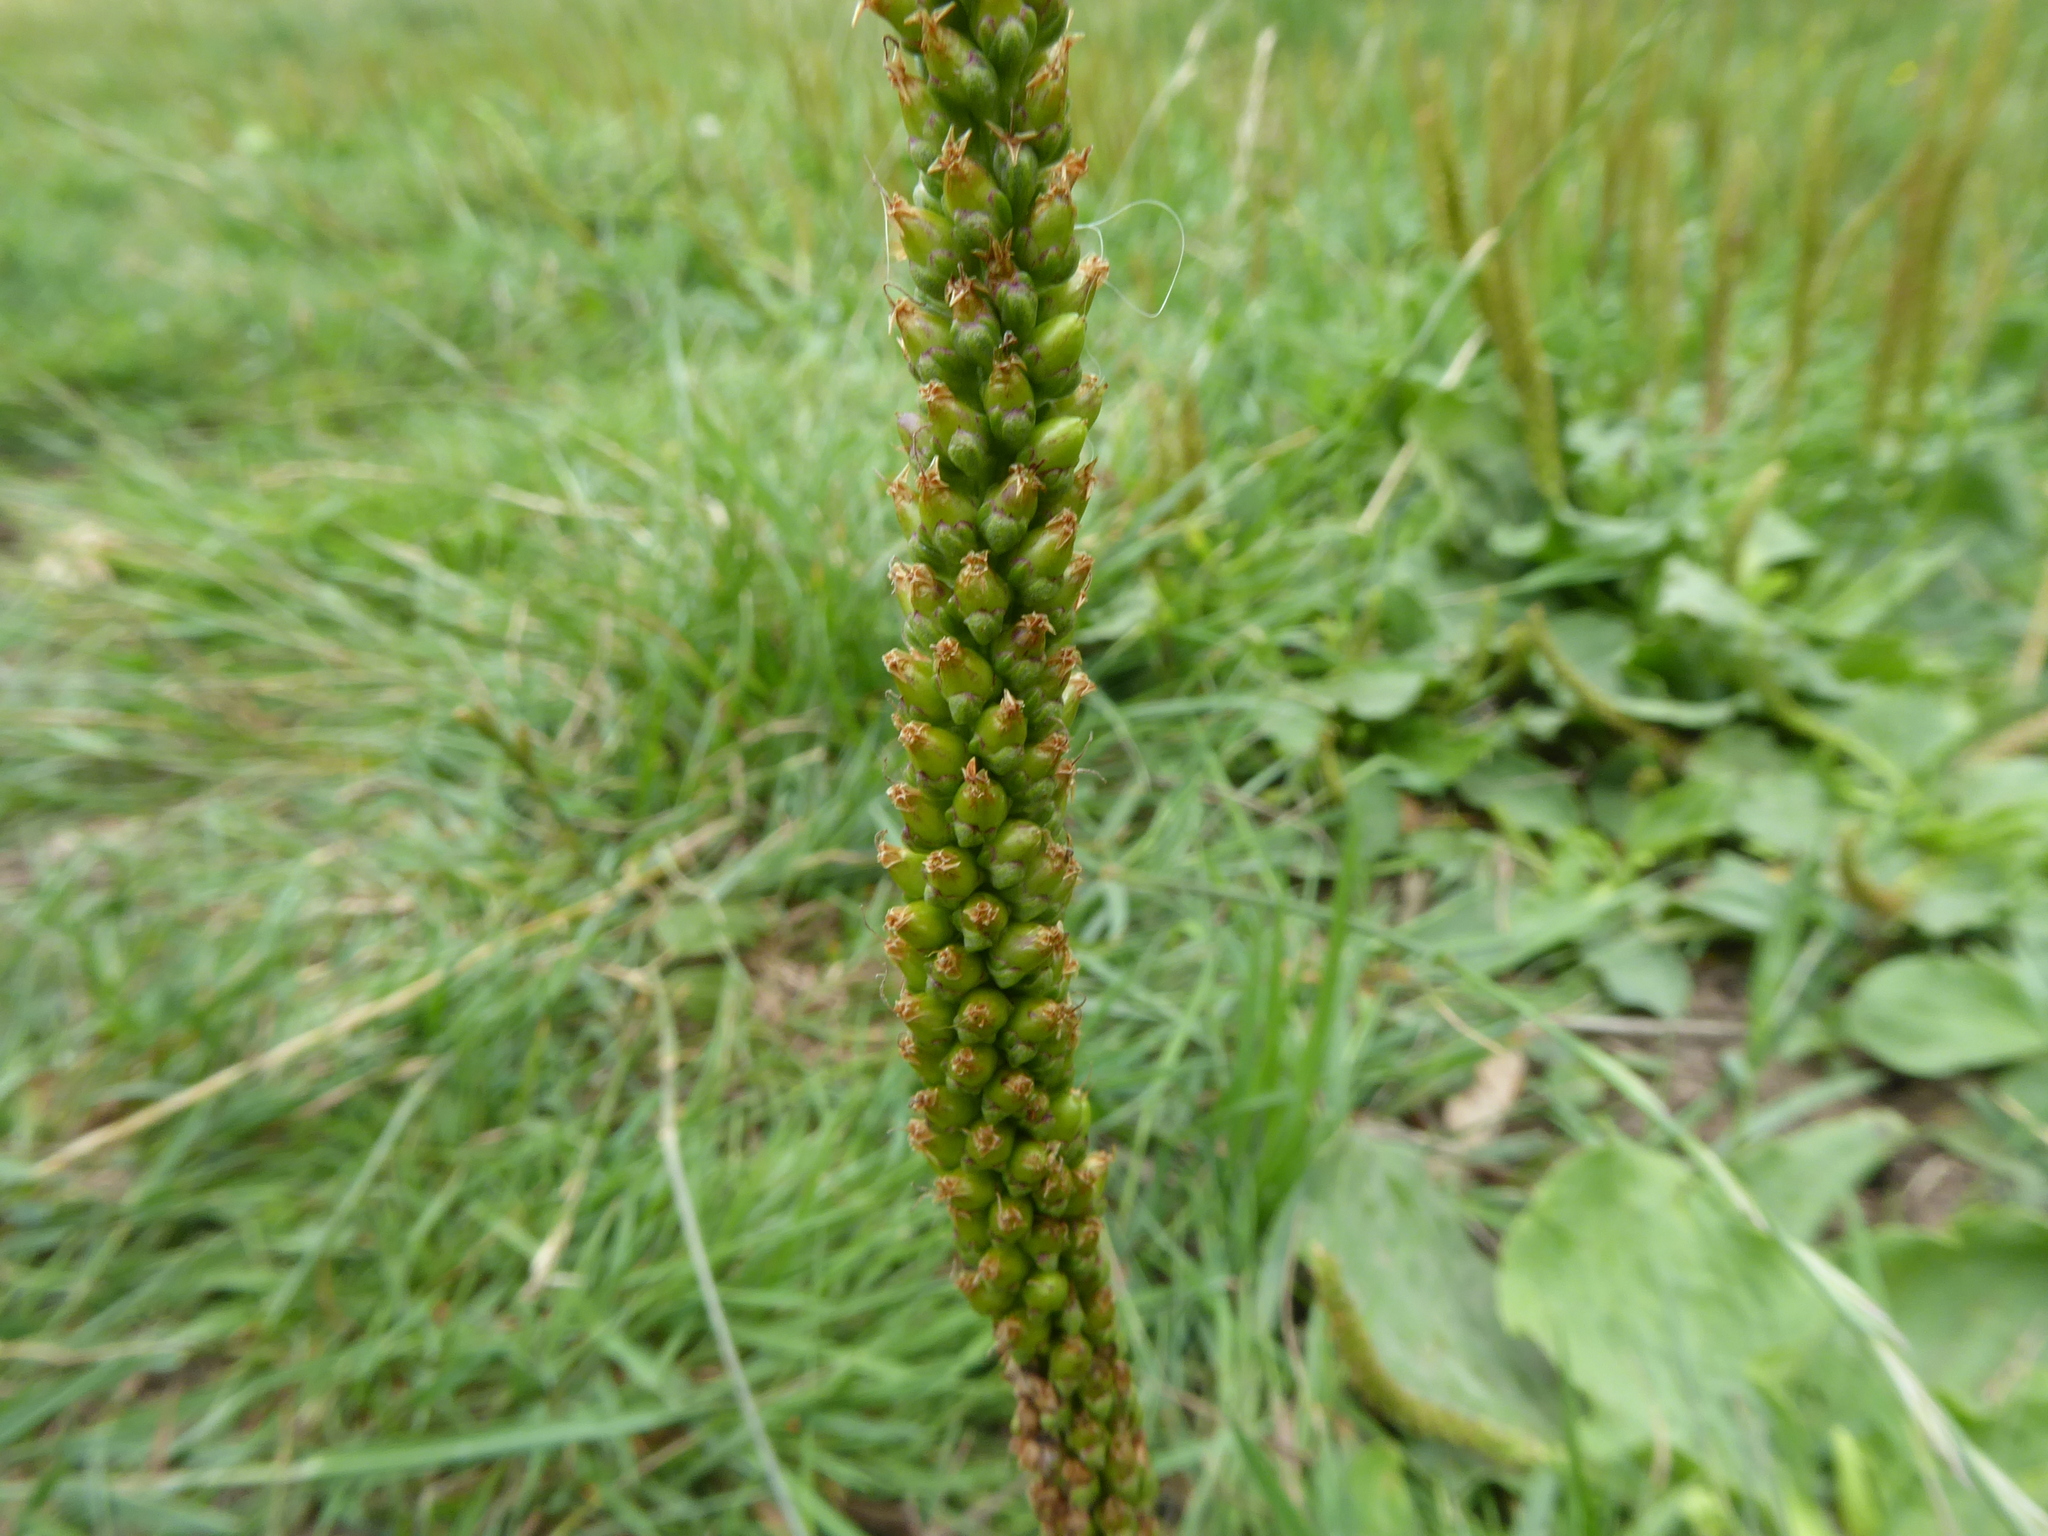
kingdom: Plantae
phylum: Tracheophyta
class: Magnoliopsida
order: Lamiales
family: Plantaginaceae
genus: Plantago
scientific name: Plantago major
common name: Common plantain
